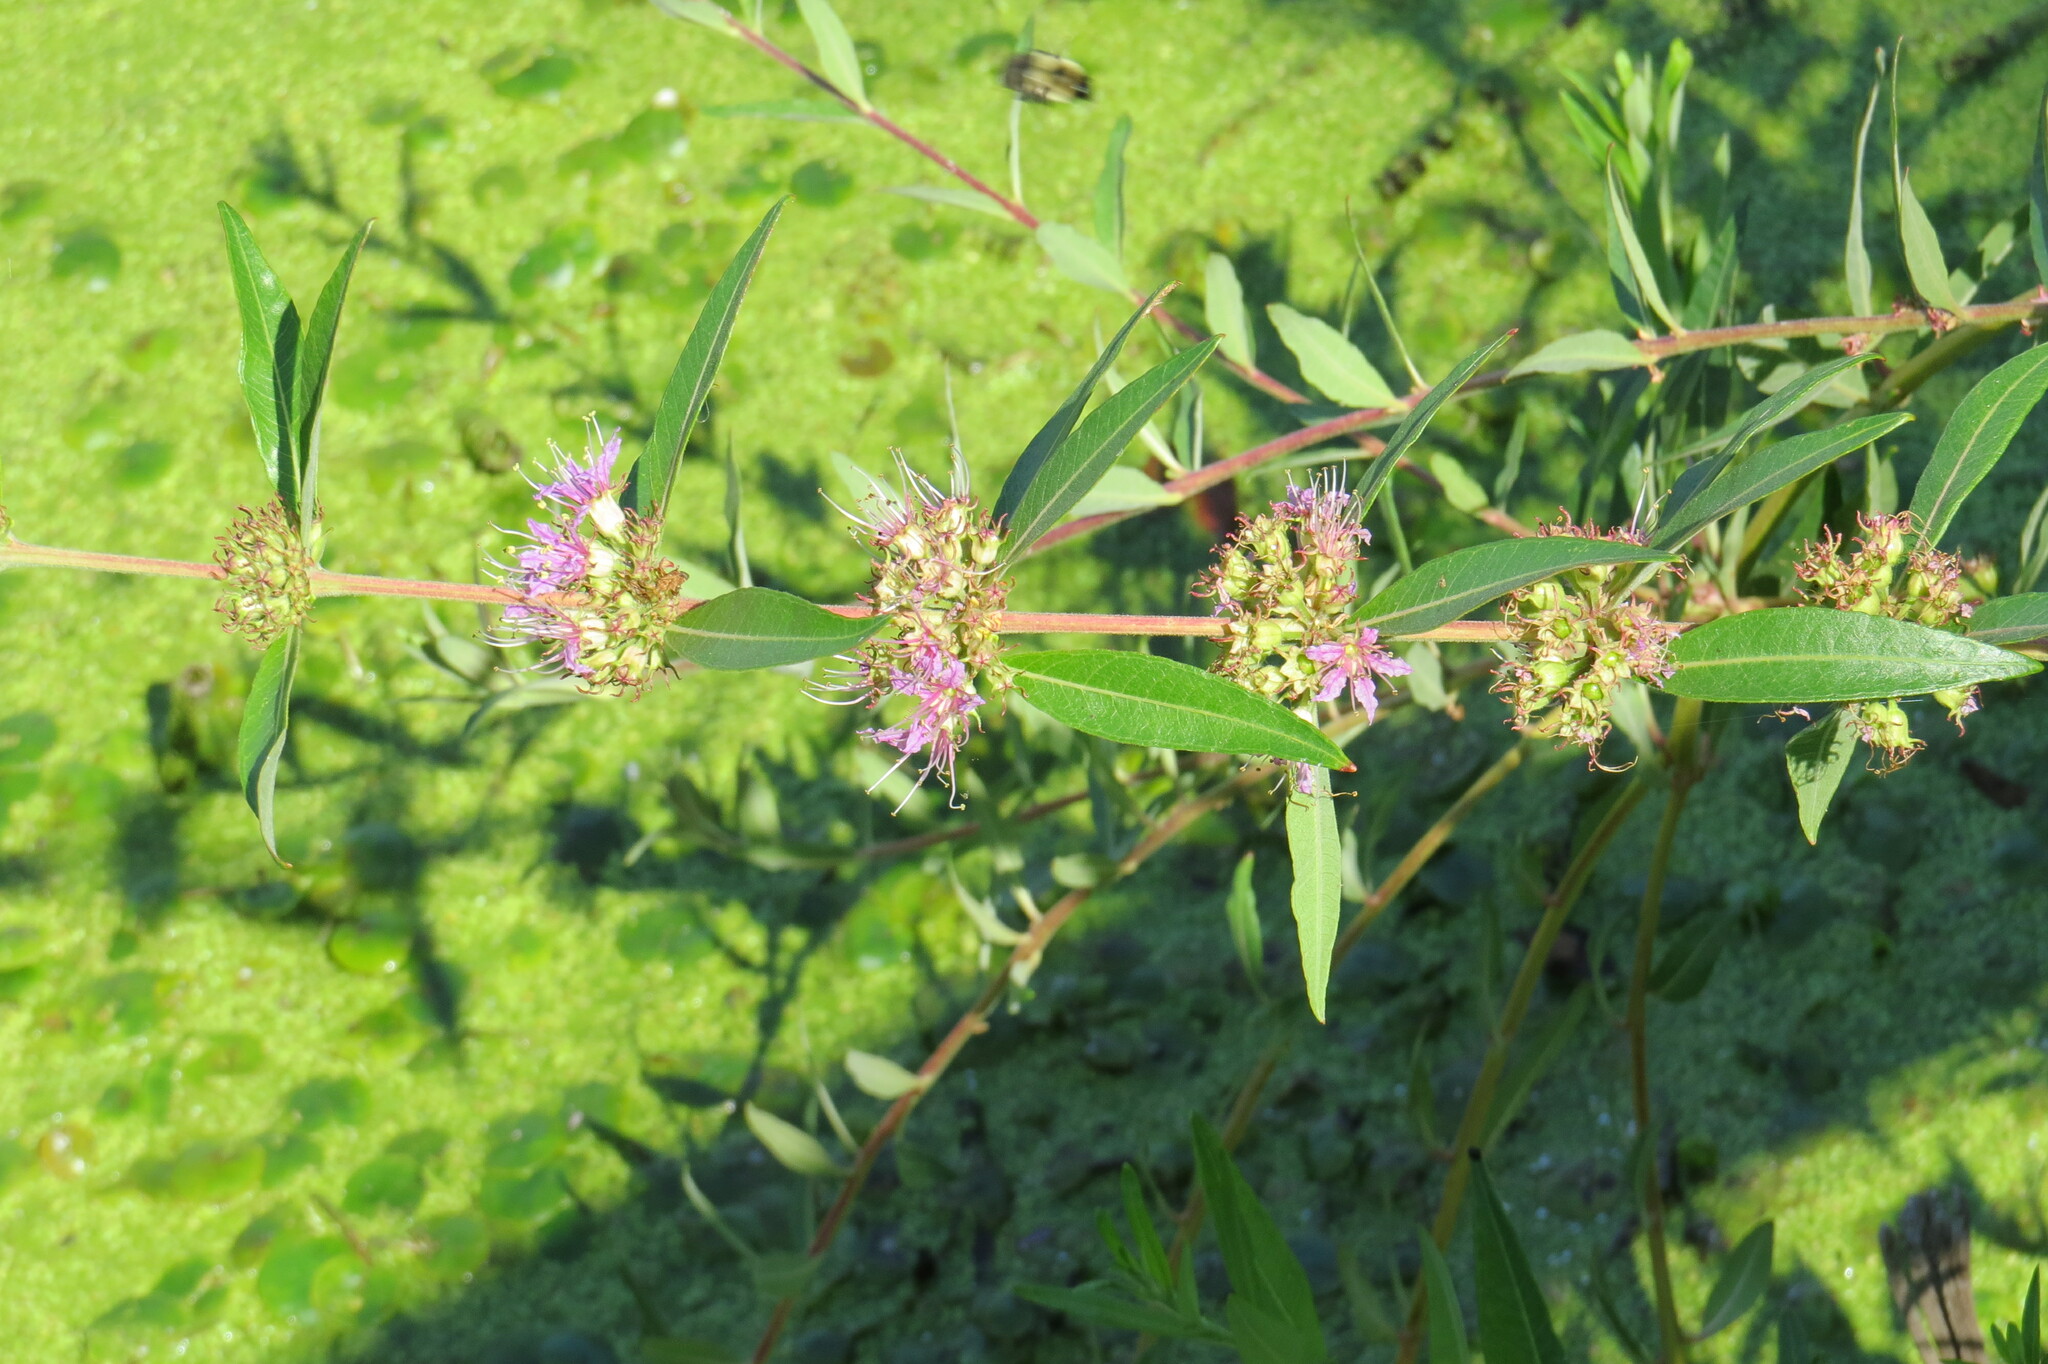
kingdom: Plantae
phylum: Tracheophyta
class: Magnoliopsida
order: Myrtales
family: Lythraceae
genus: Decodon
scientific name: Decodon verticillatus
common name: Hairy swamp loosestrife
